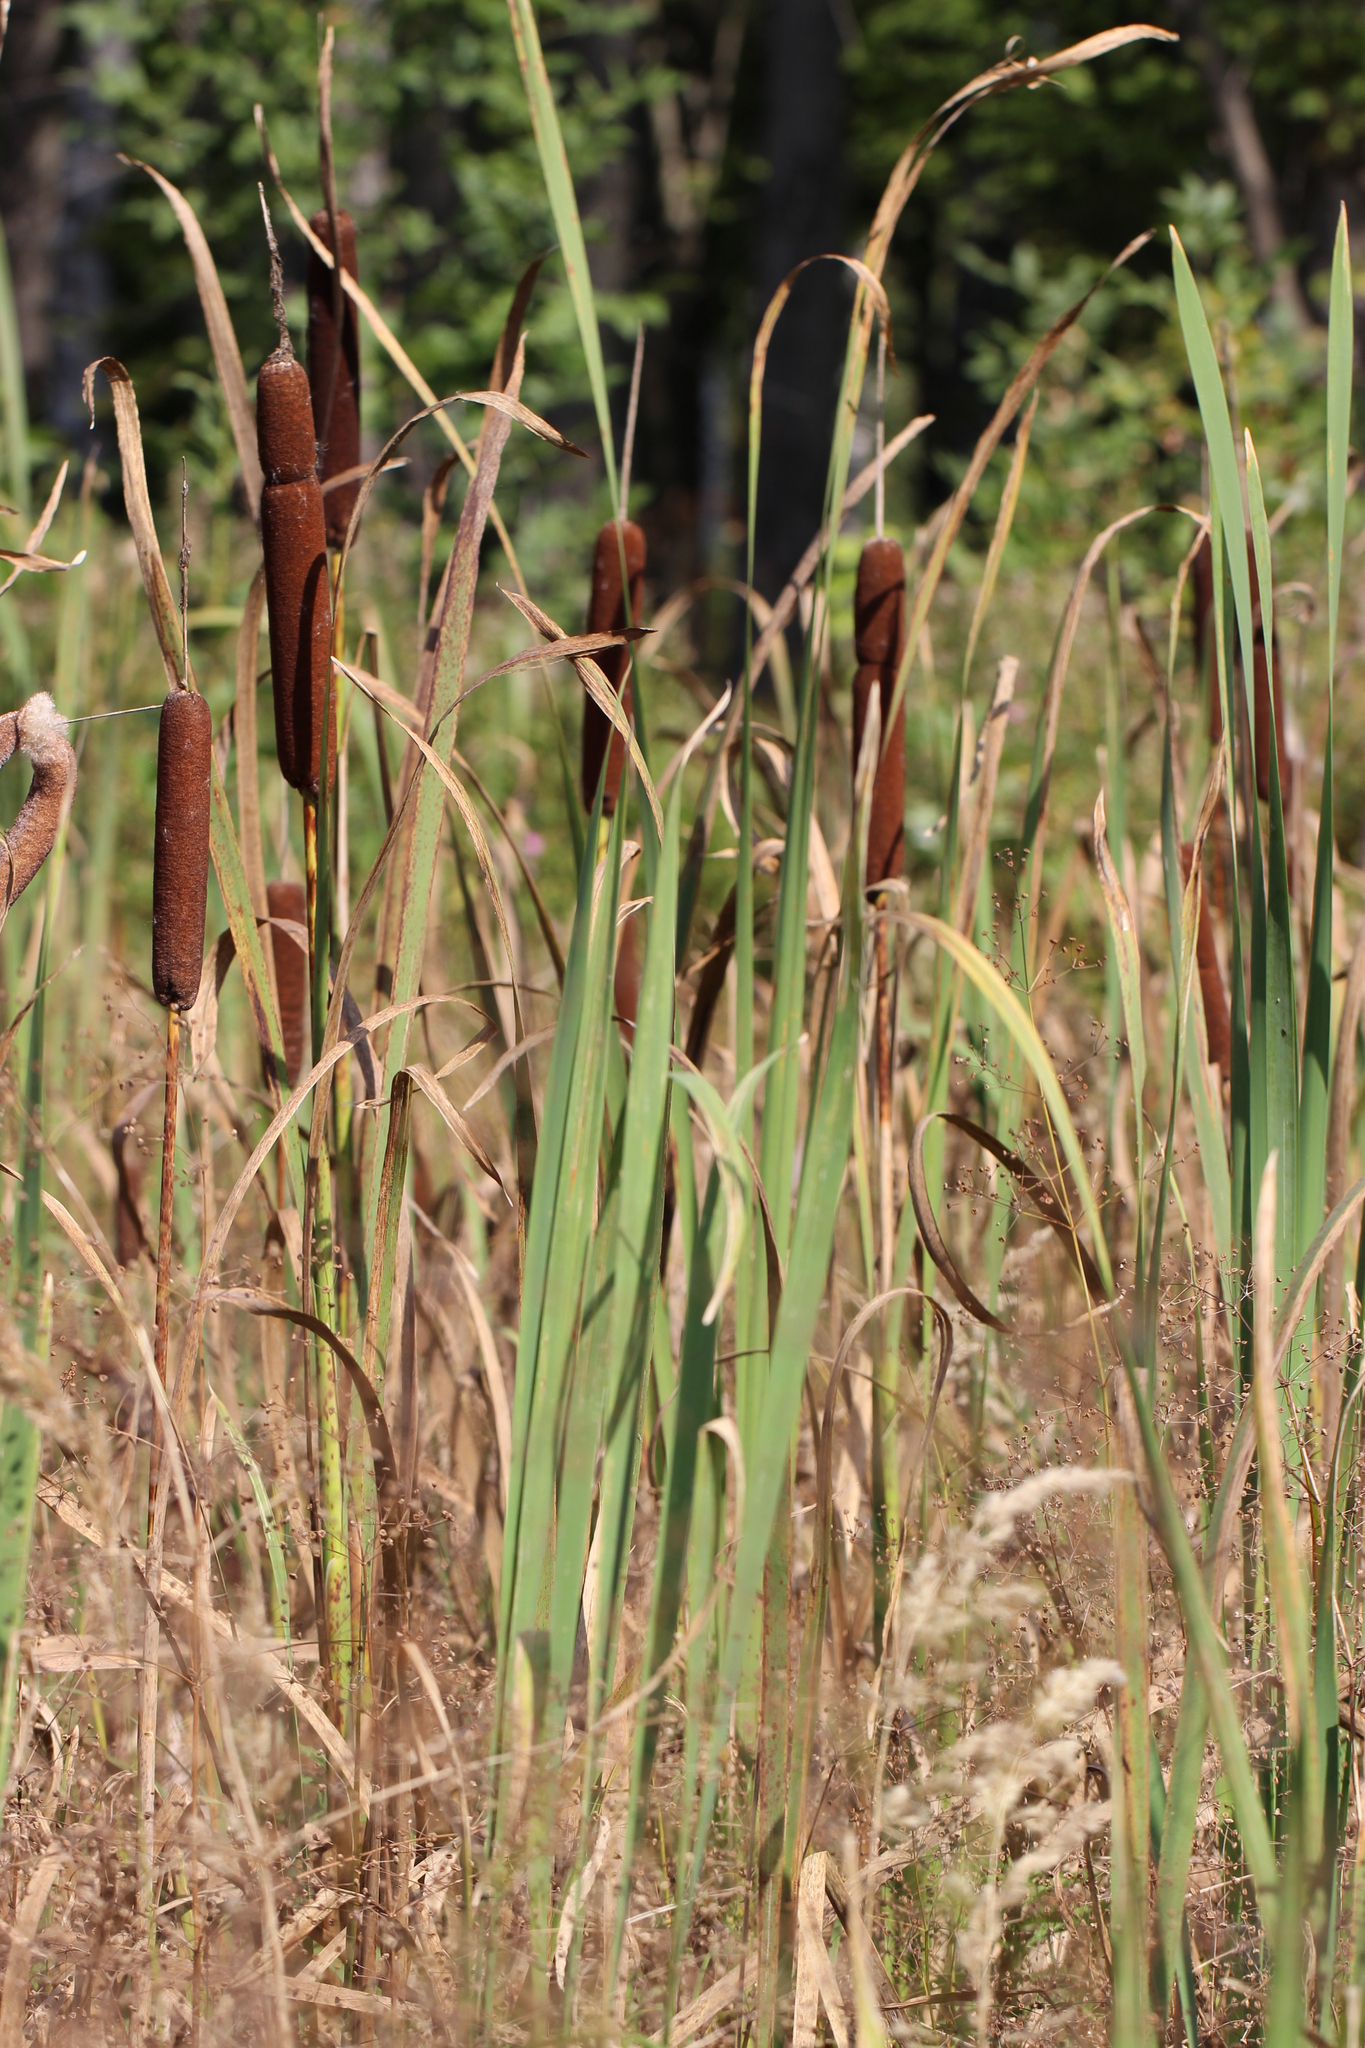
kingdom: Plantae
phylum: Tracheophyta
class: Liliopsida
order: Poales
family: Typhaceae
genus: Typha
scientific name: Typha latifolia
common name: Broadleaf cattail
